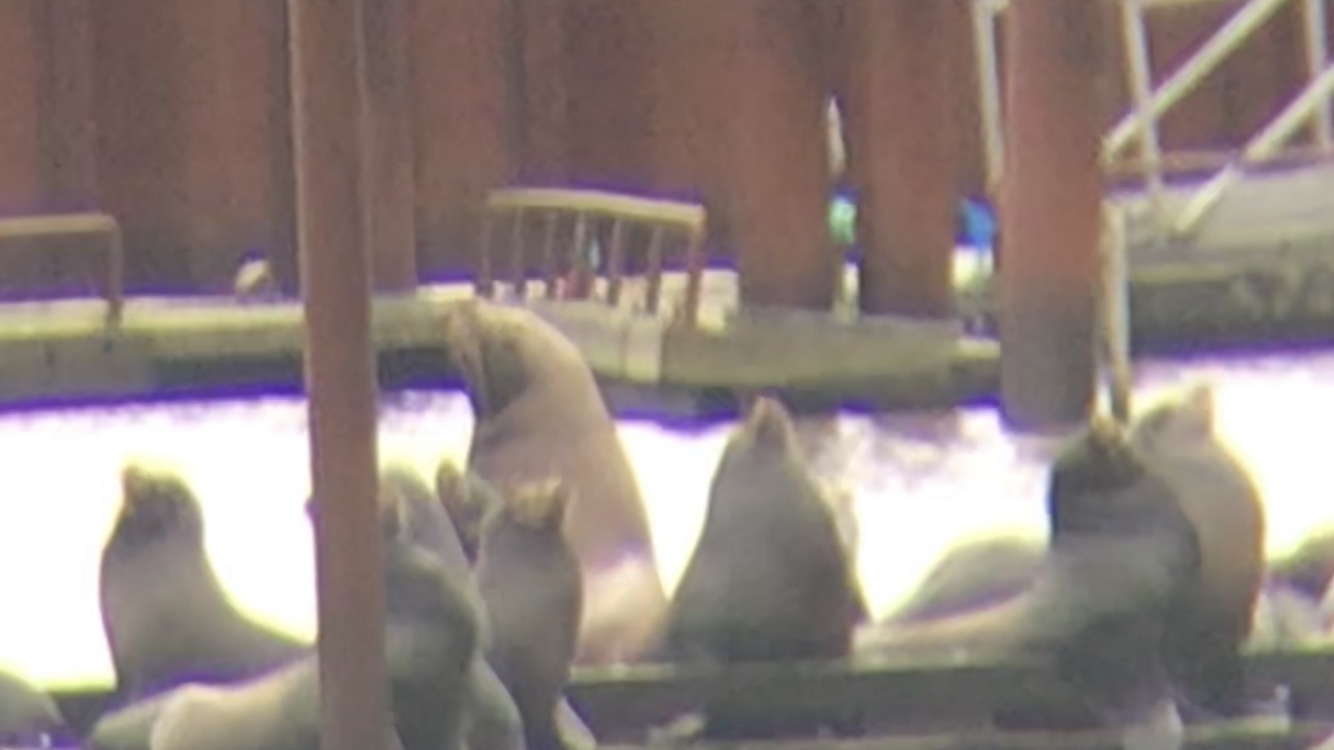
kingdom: Animalia
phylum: Chordata
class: Mammalia
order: Carnivora
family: Otariidae
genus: Eumetopias
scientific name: Eumetopias jubatus
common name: Steller sea lion
